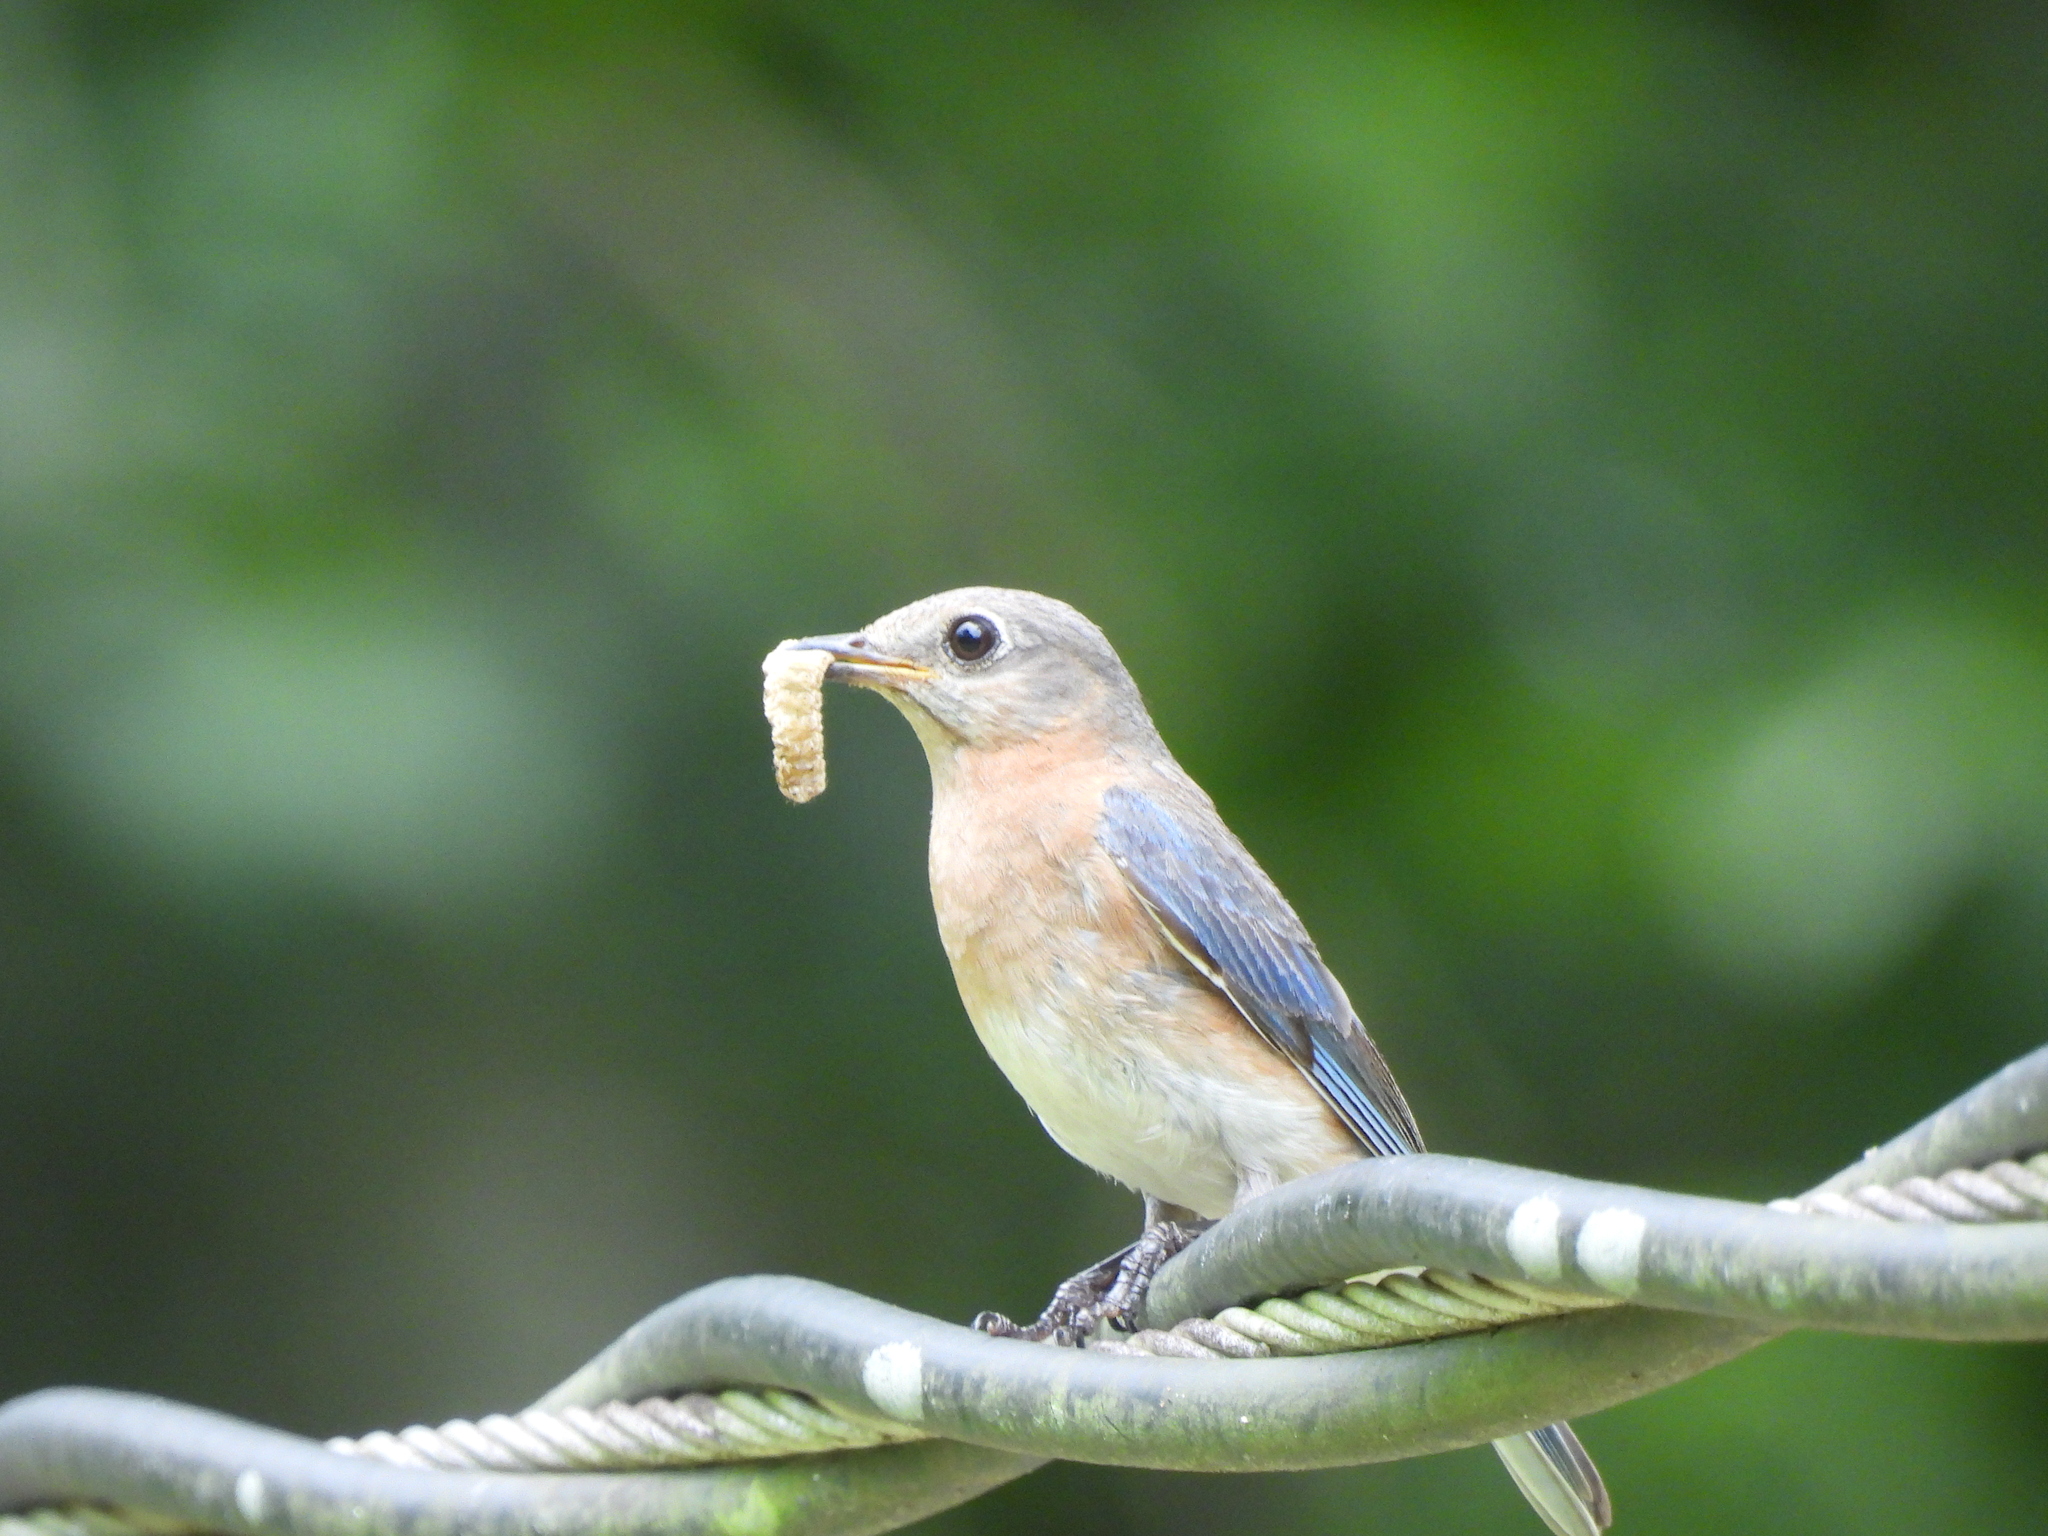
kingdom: Animalia
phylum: Chordata
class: Aves
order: Passeriformes
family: Turdidae
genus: Sialia
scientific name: Sialia sialis
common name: Eastern bluebird
